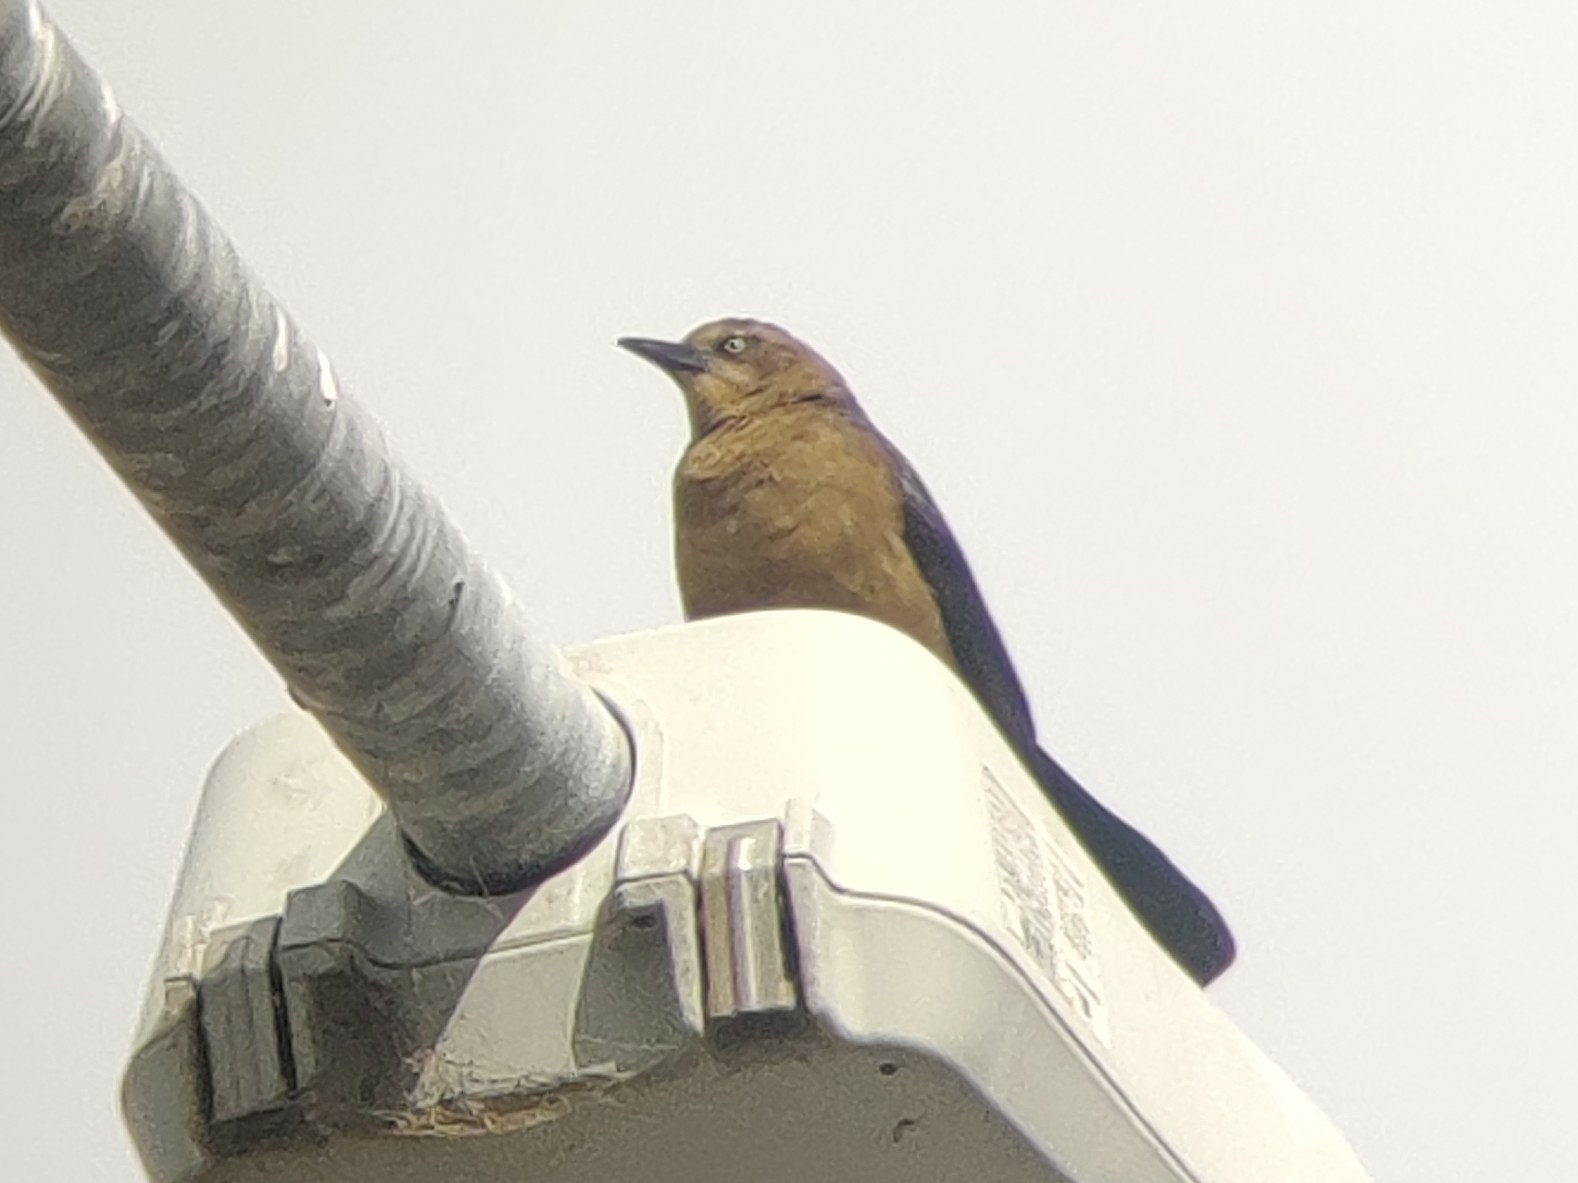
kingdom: Animalia
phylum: Chordata
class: Aves
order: Passeriformes
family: Icteridae
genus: Quiscalus
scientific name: Quiscalus mexicanus
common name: Great-tailed grackle
